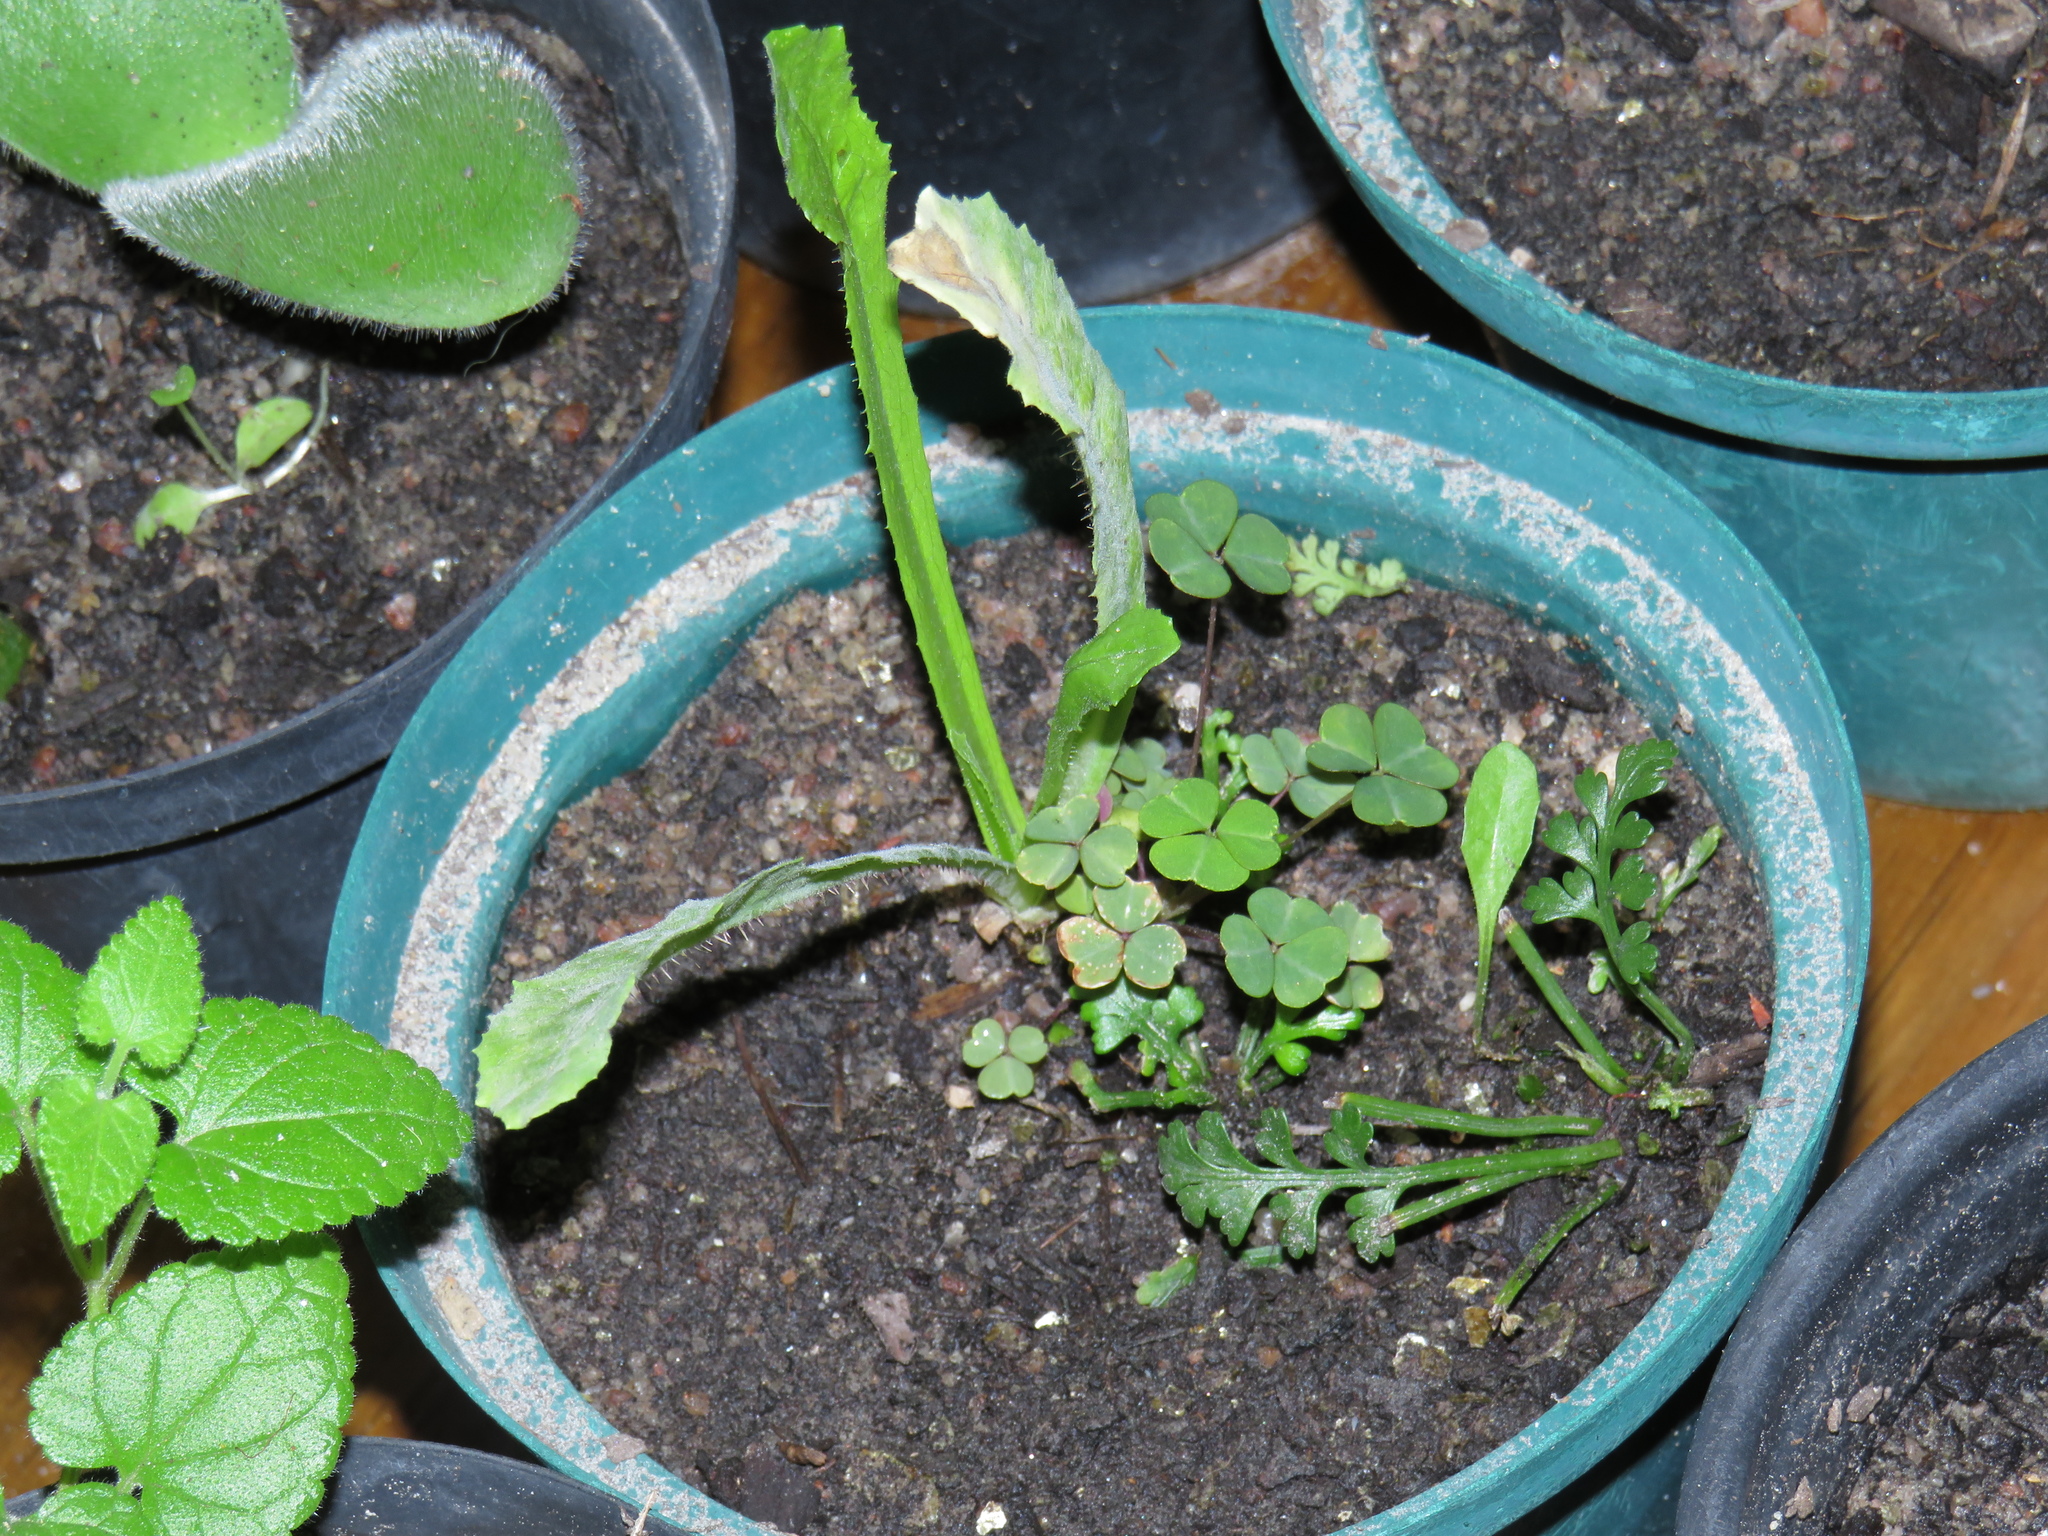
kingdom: Plantae
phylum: Tracheophyta
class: Magnoliopsida
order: Asterales
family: Asteraceae
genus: Lactuca
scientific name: Lactuca serriola
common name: Prickly lettuce
